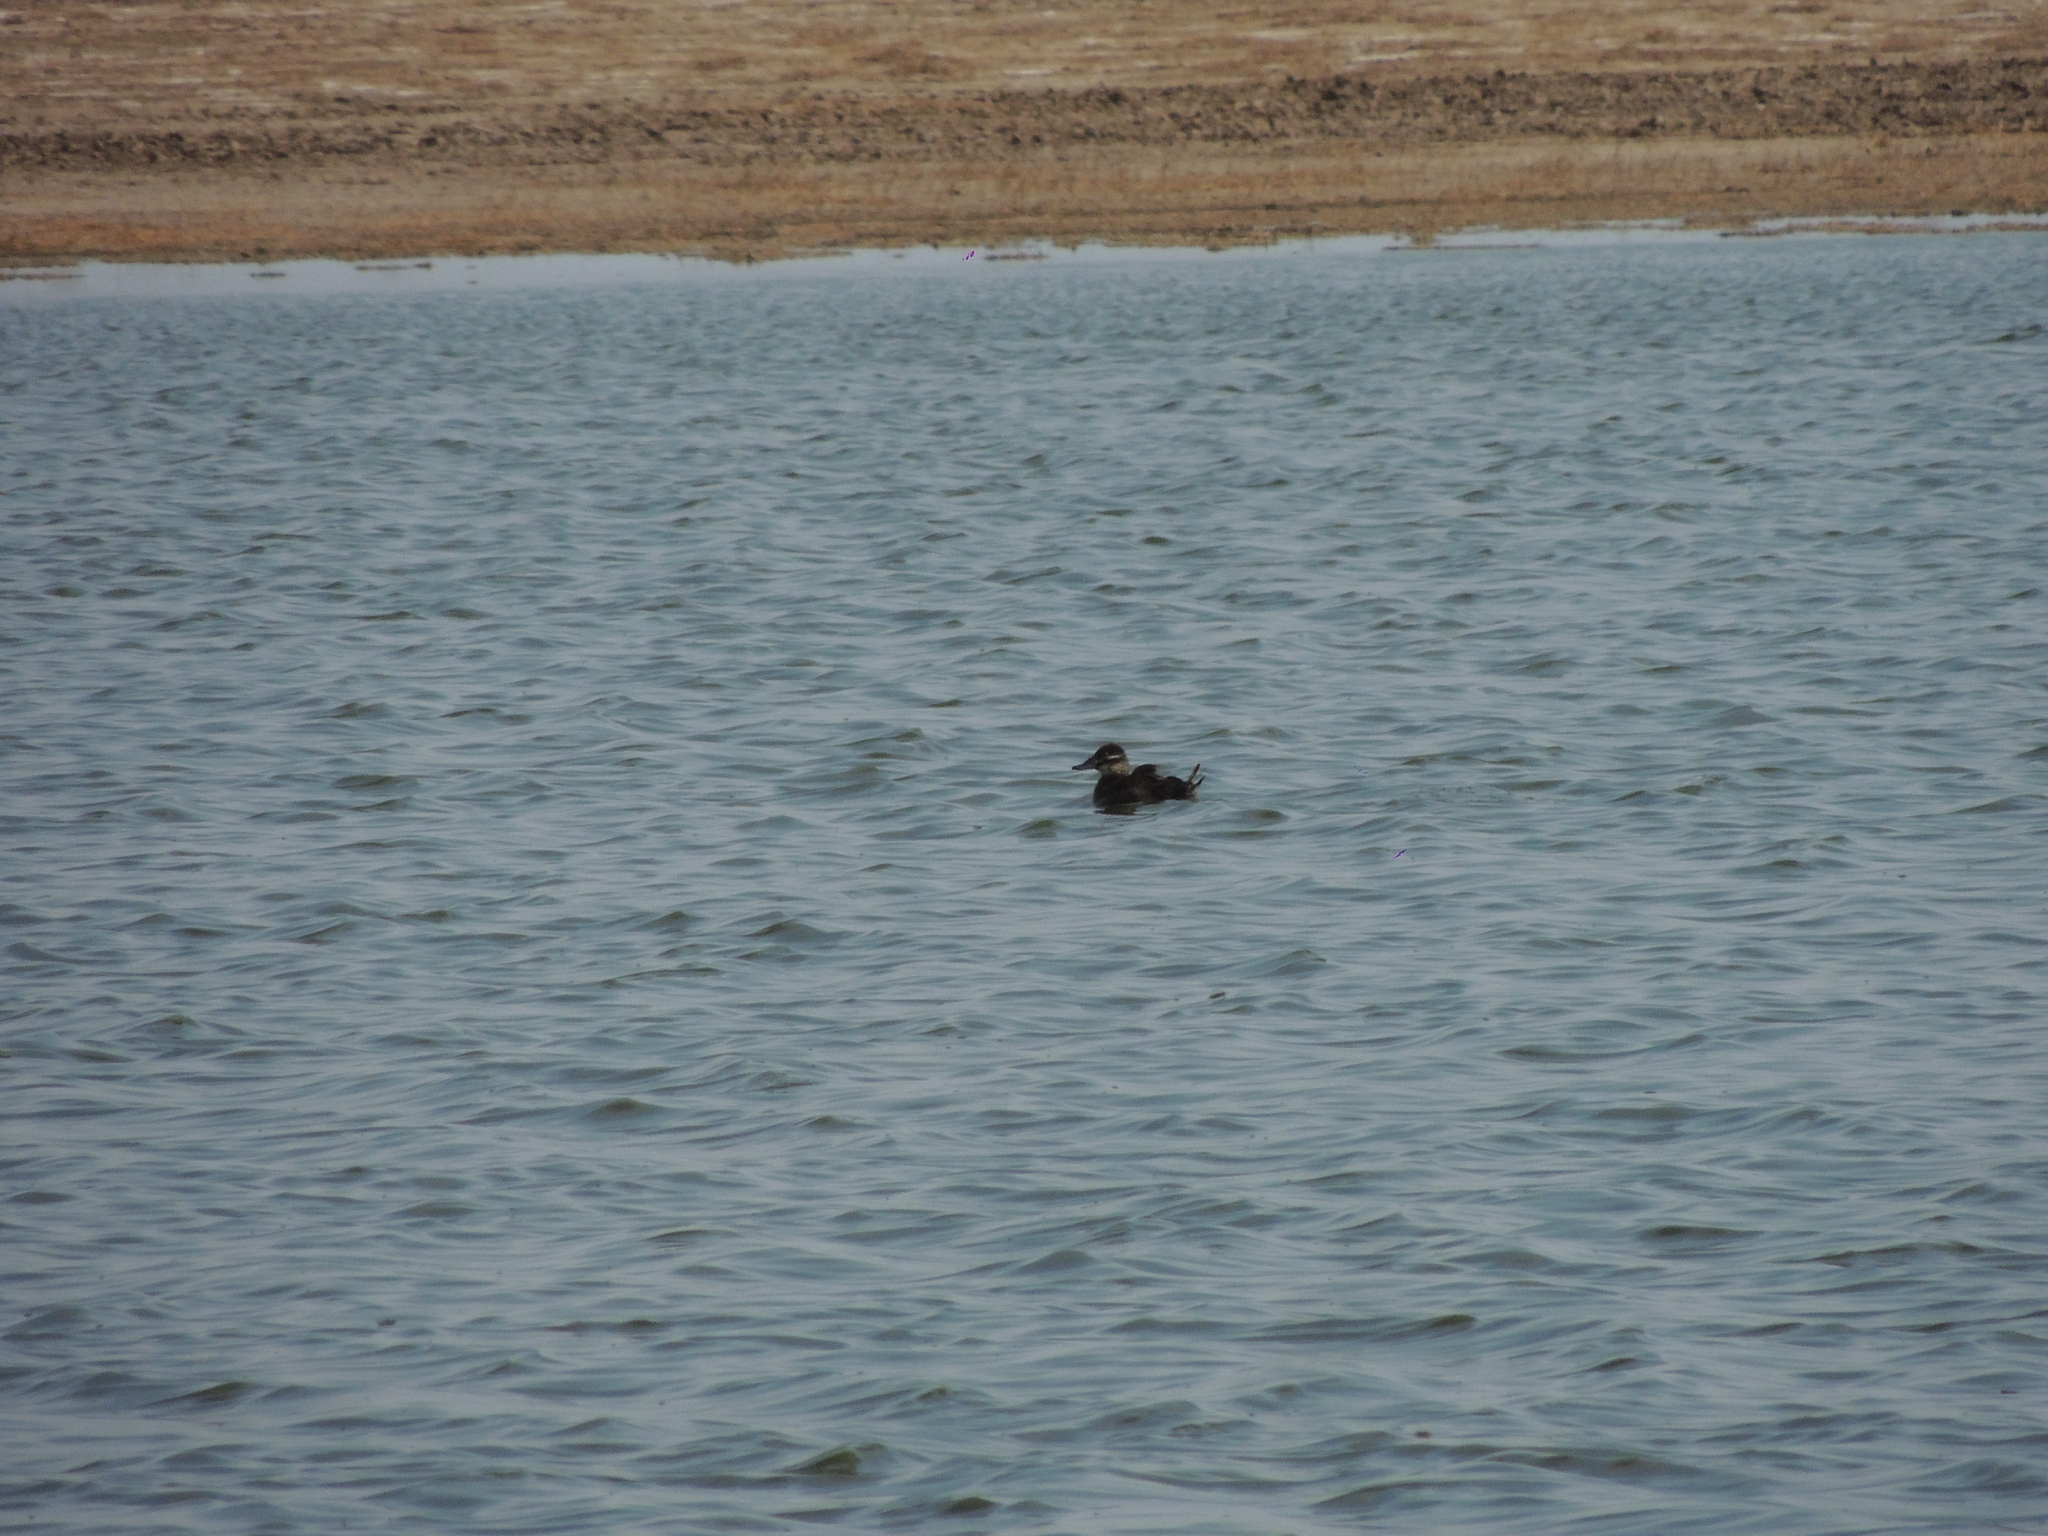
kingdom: Animalia
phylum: Chordata
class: Aves
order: Anseriformes
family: Anatidae
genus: Oxyura
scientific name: Oxyura vittata
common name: Lake duck
